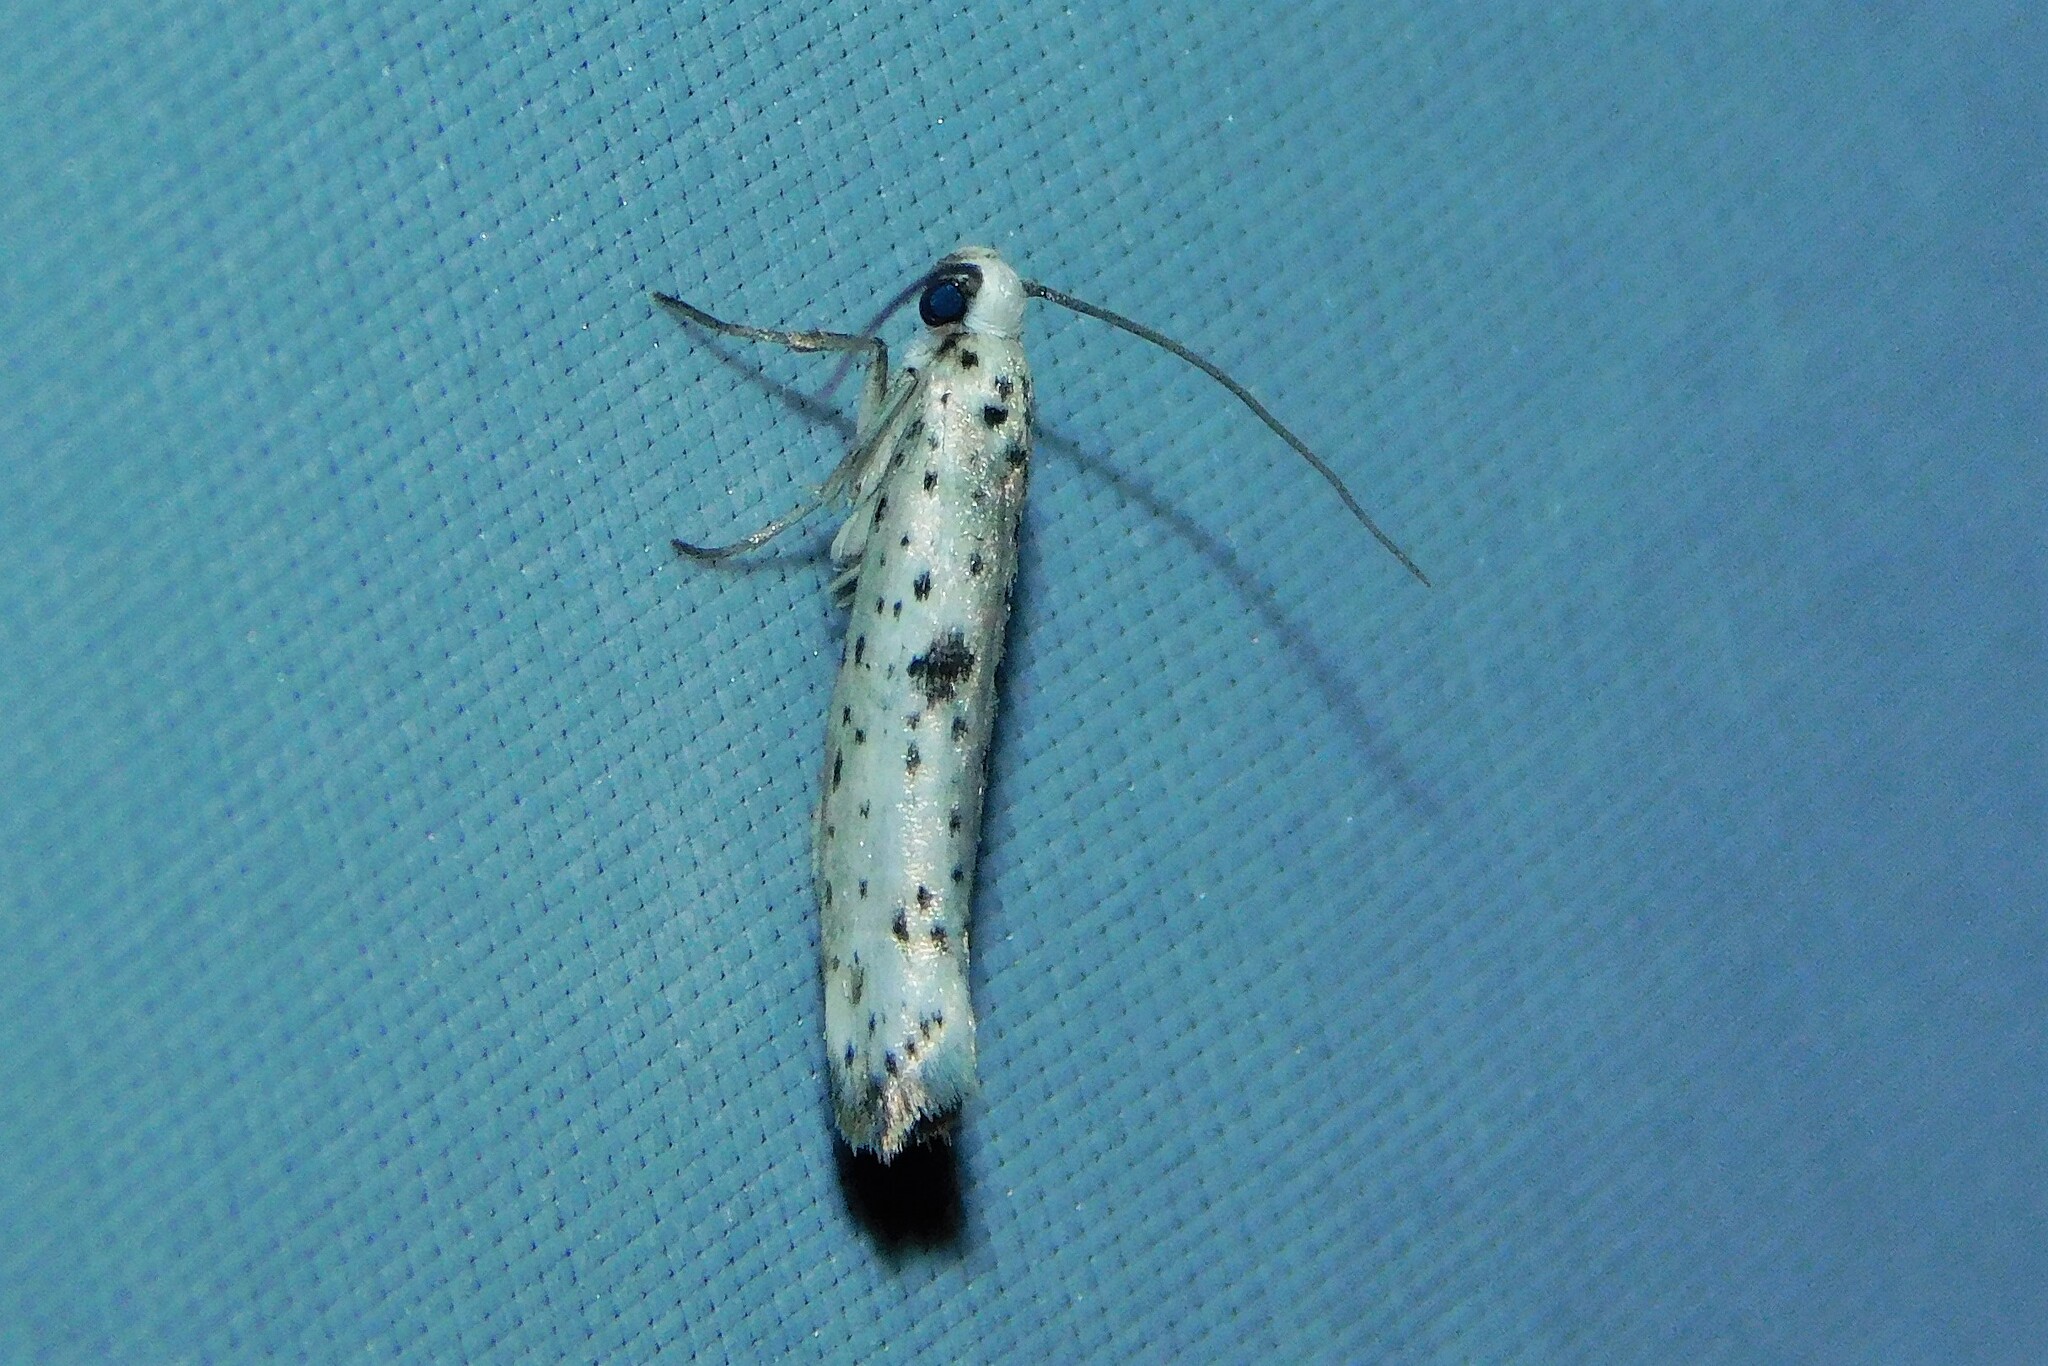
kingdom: Animalia
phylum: Arthropoda
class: Insecta
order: Lepidoptera
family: Yponomeutidae
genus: Yponomeuta
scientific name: Yponomeuta plumbella
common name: Black-tipped ermine
